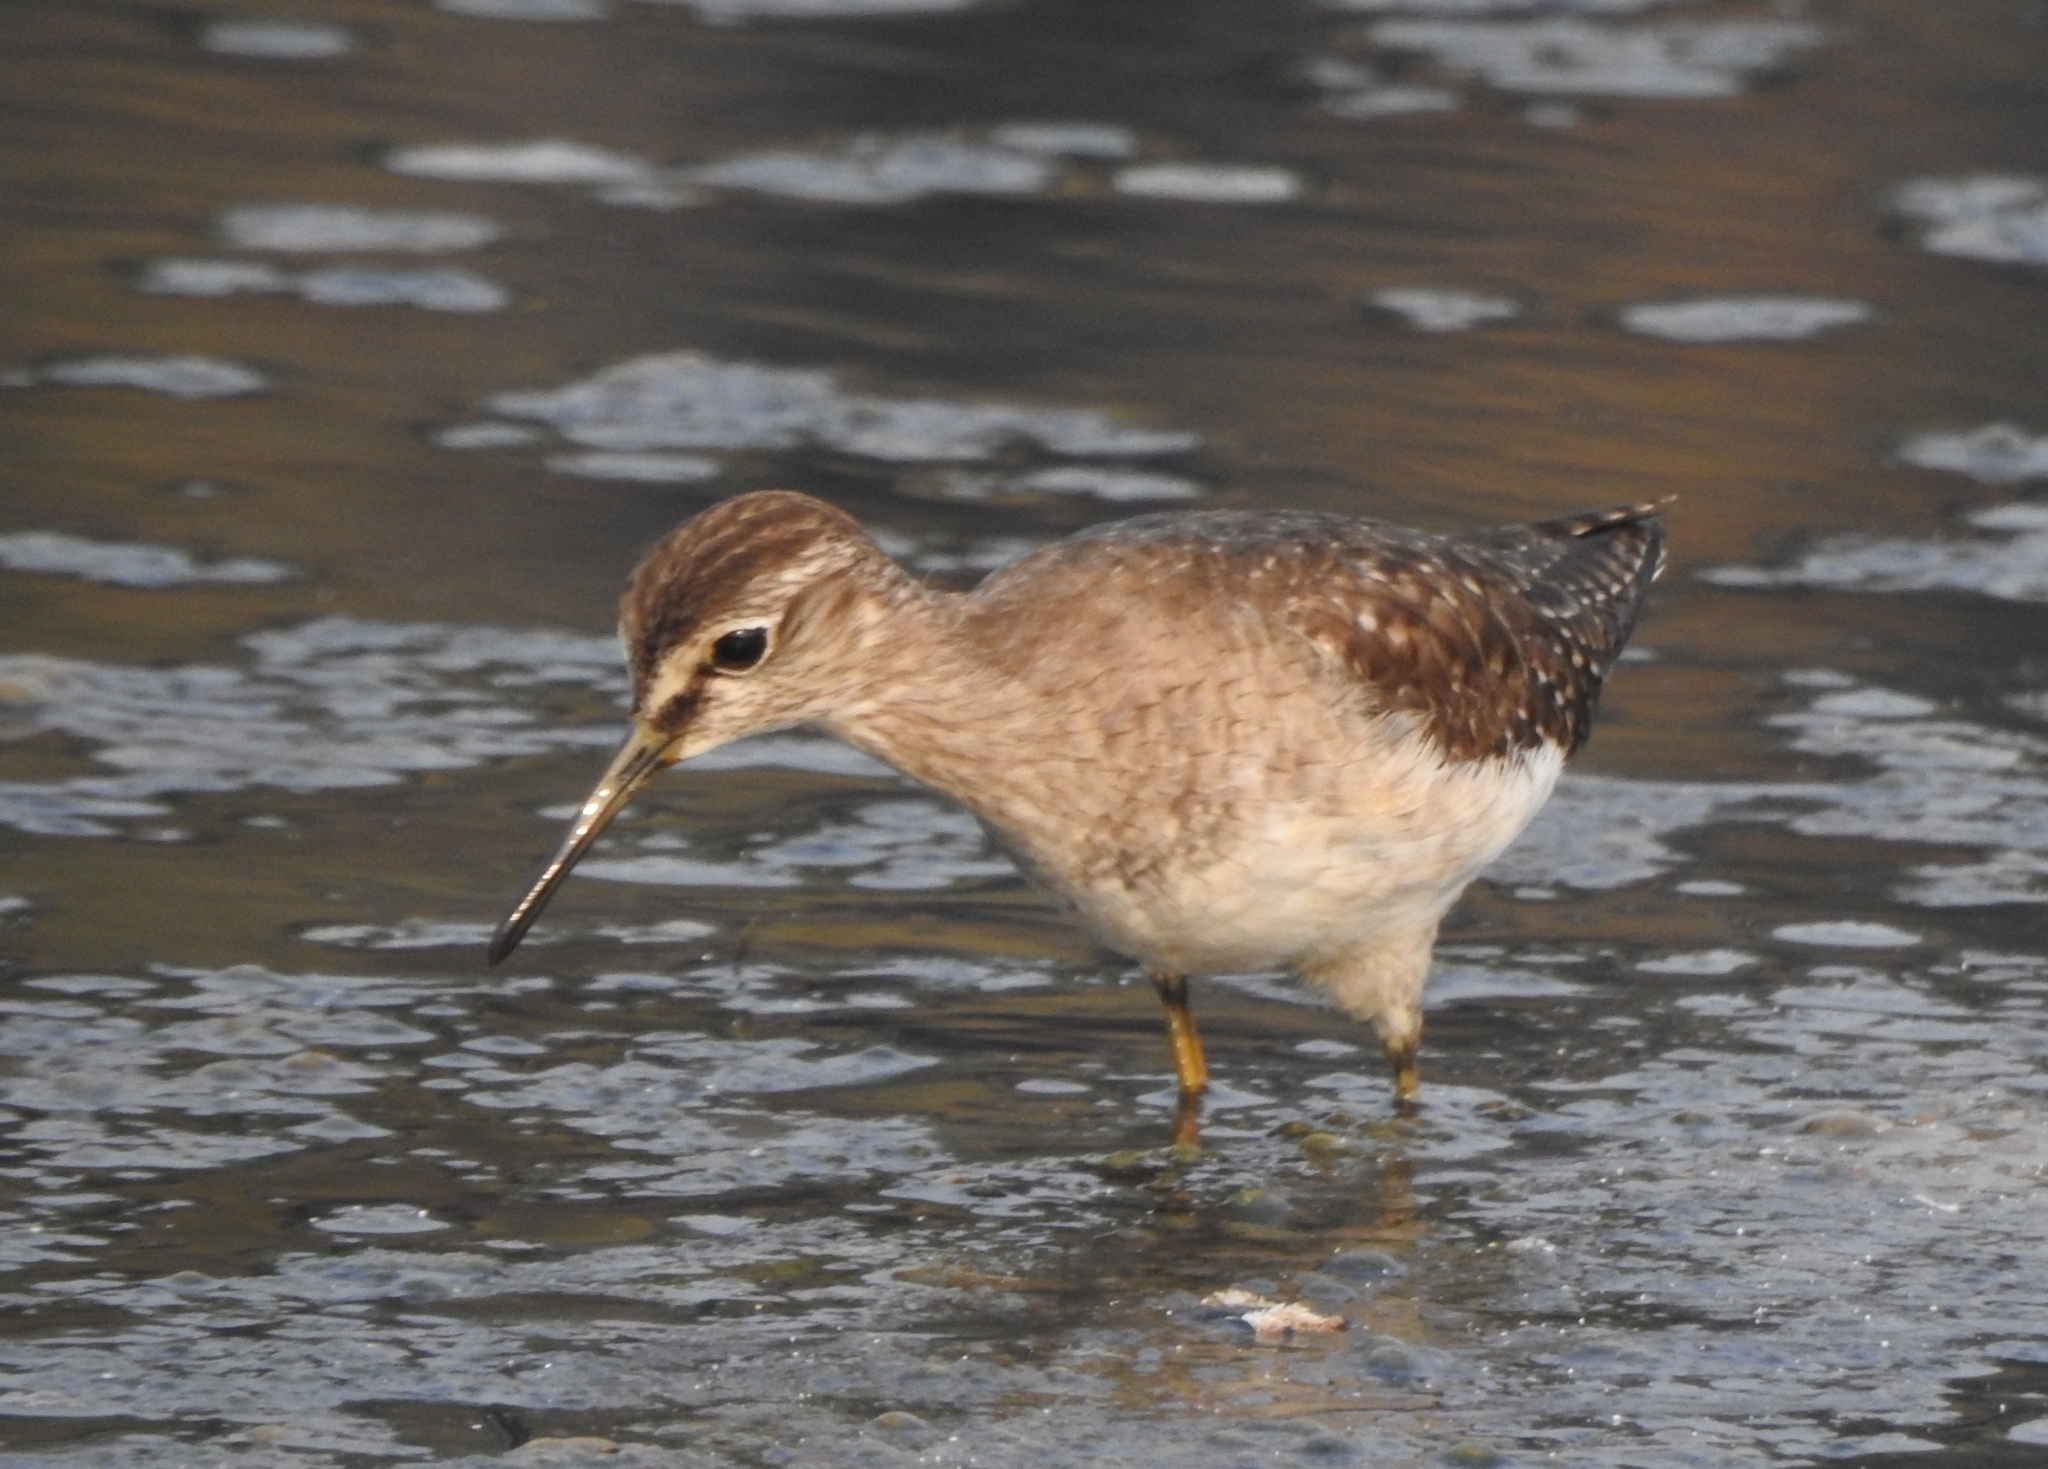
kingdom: Animalia
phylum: Chordata
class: Aves
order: Charadriiformes
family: Scolopacidae
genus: Tringa
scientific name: Tringa glareola
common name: Wood sandpiper
